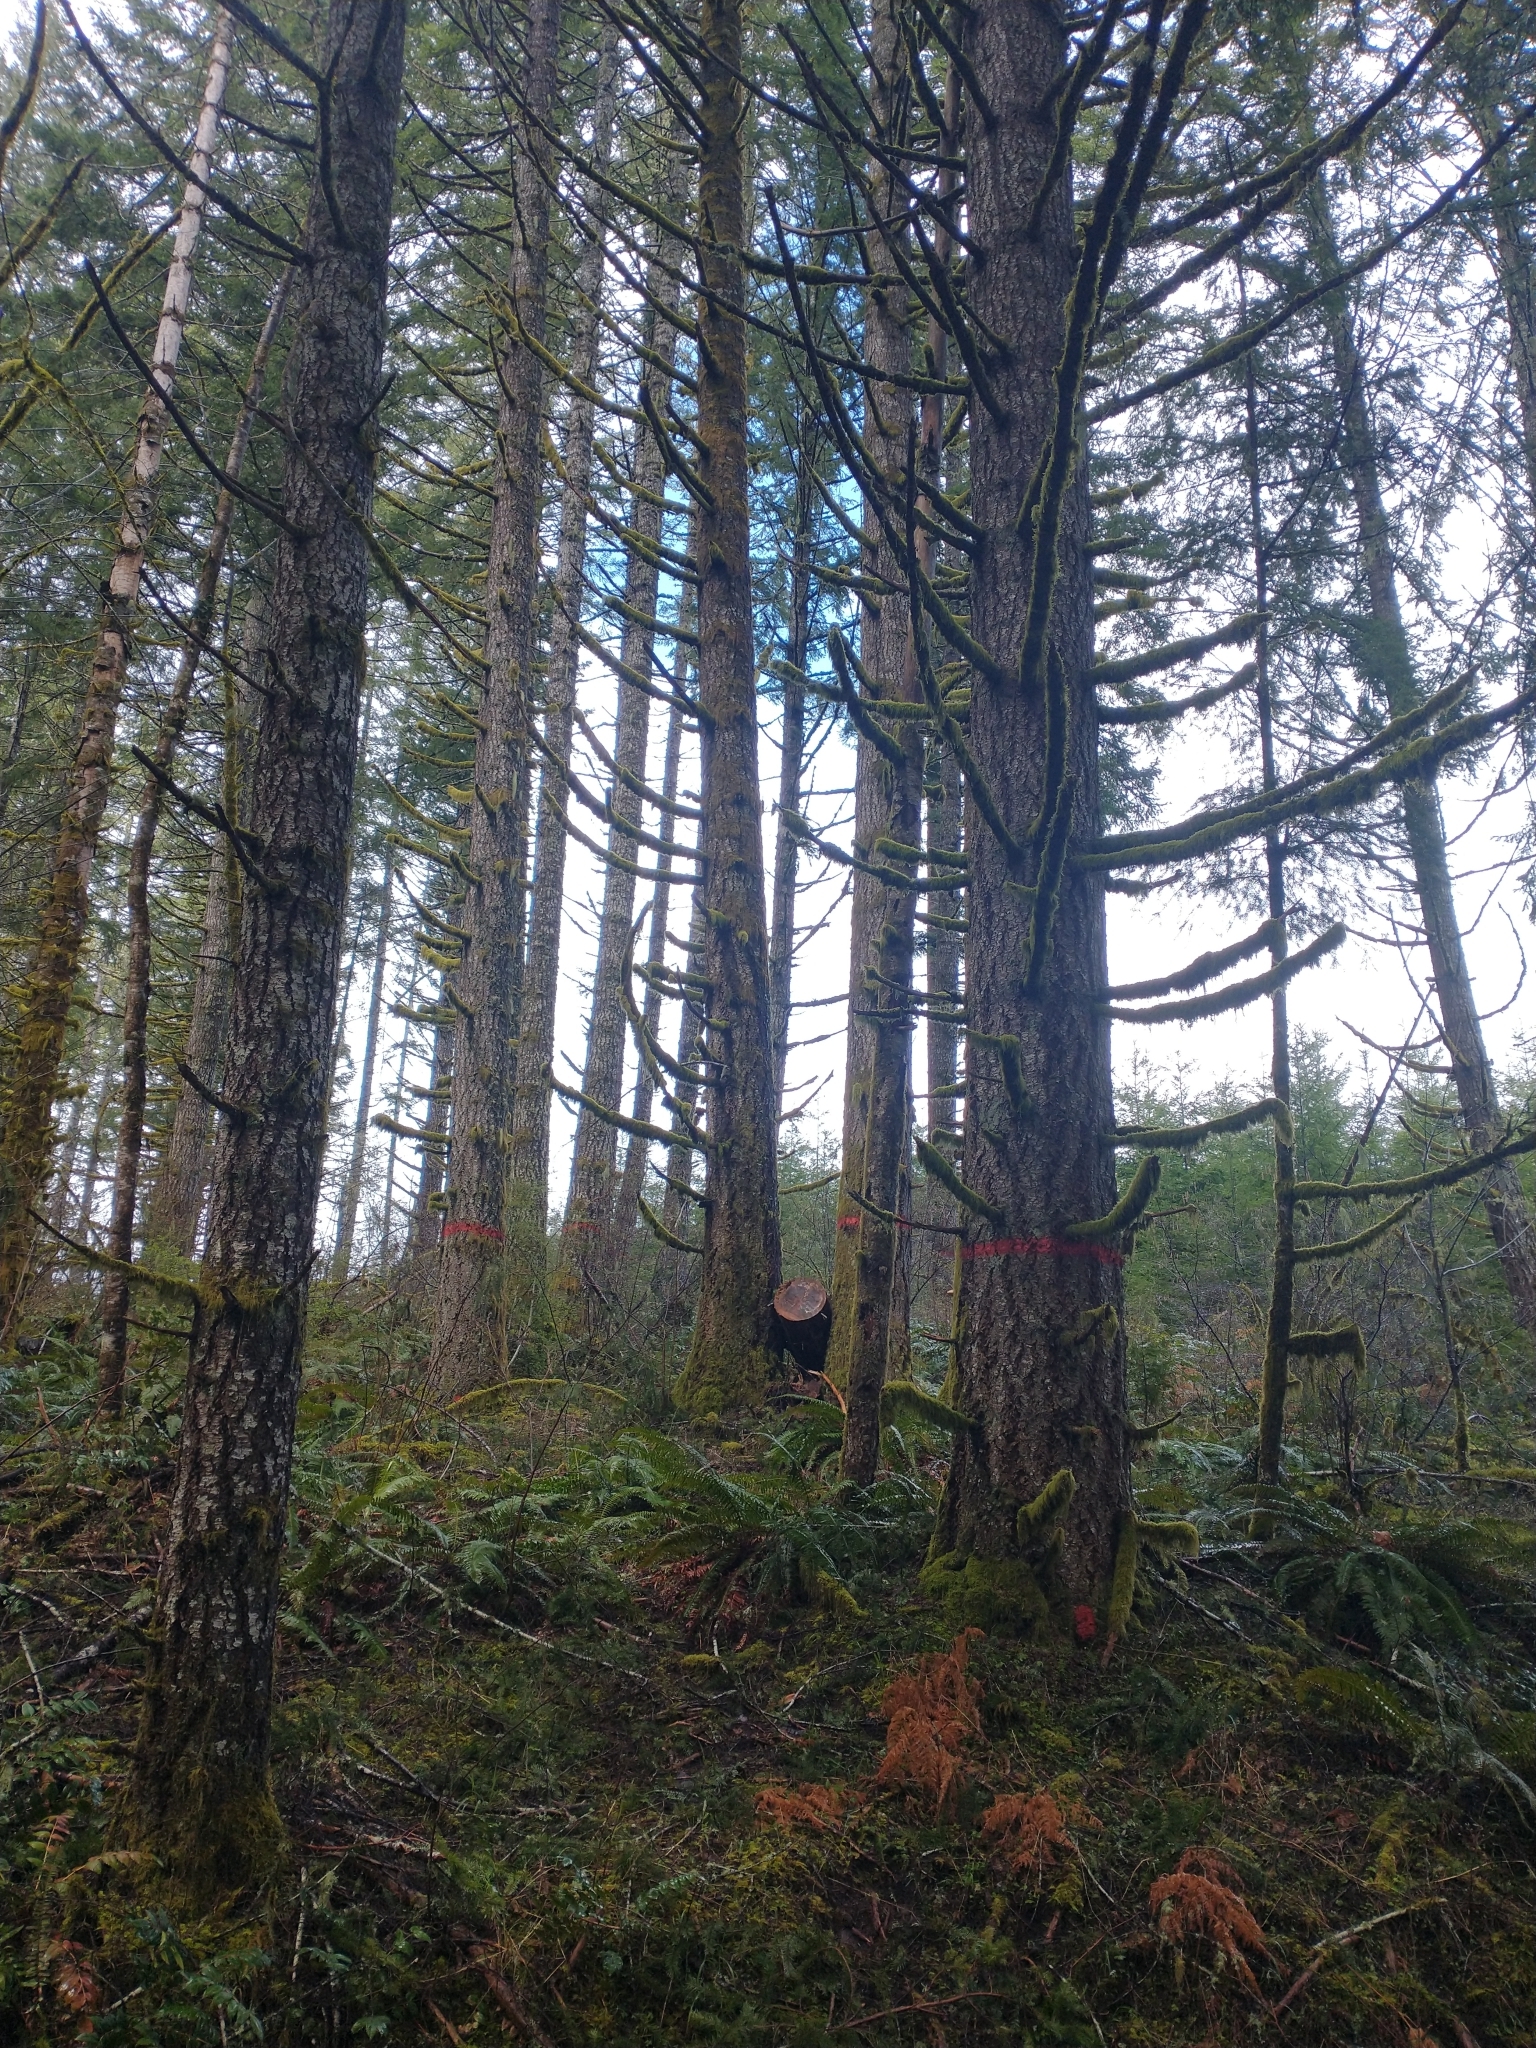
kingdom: Plantae
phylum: Tracheophyta
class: Pinopsida
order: Pinales
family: Pinaceae
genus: Pseudotsuga
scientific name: Pseudotsuga menziesii
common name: Douglas fir
